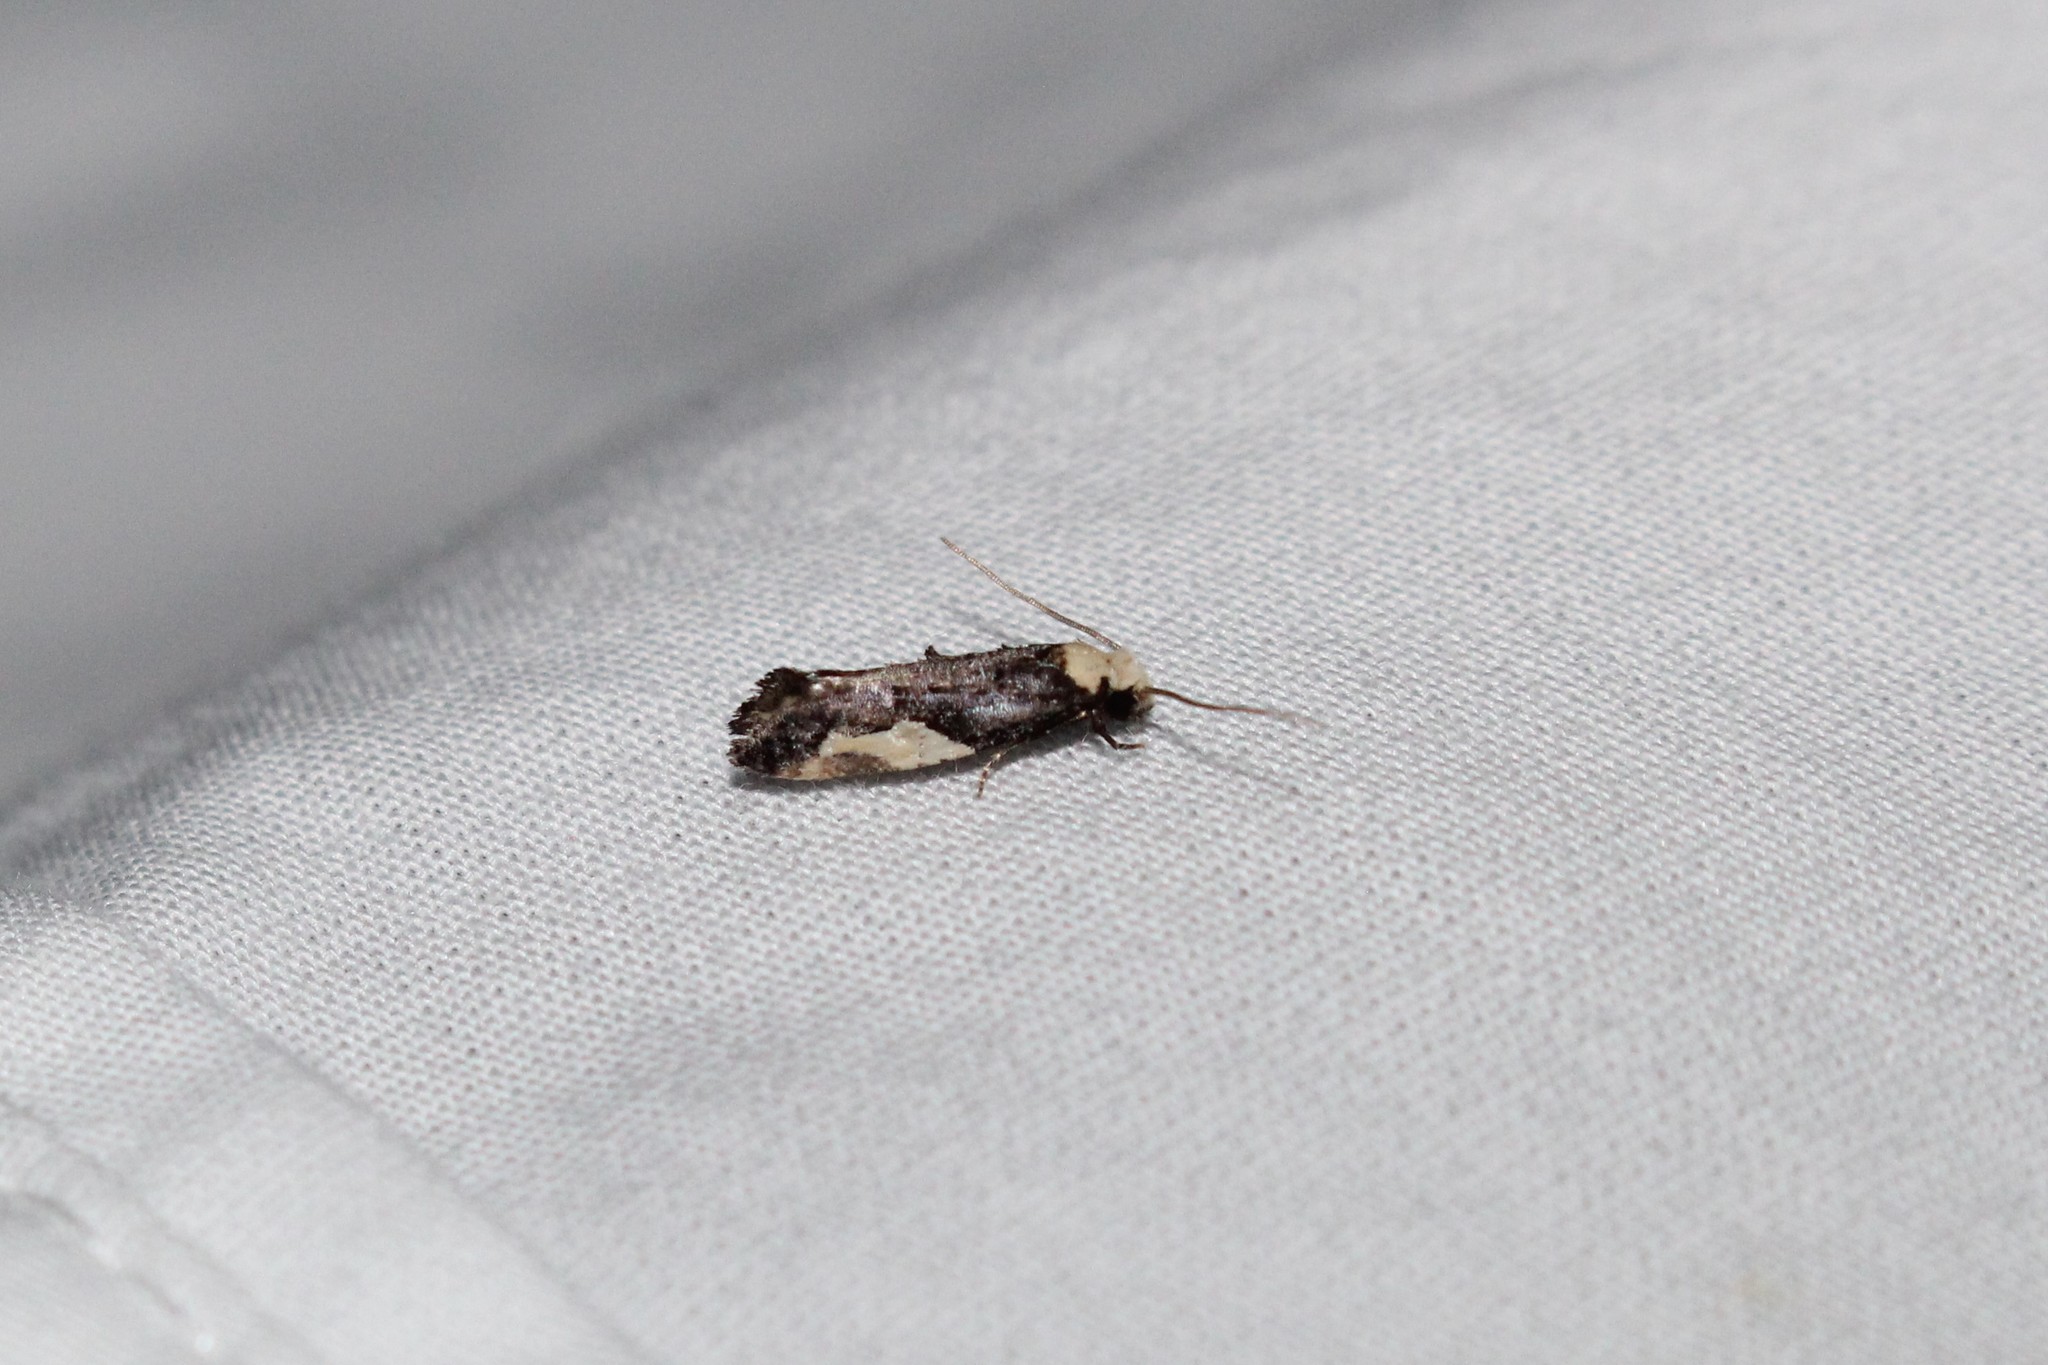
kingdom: Animalia
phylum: Arthropoda
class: Insecta
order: Lepidoptera
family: Tineidae
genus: Monopis
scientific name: Monopis longella
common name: Pavlovski's monopis moth
